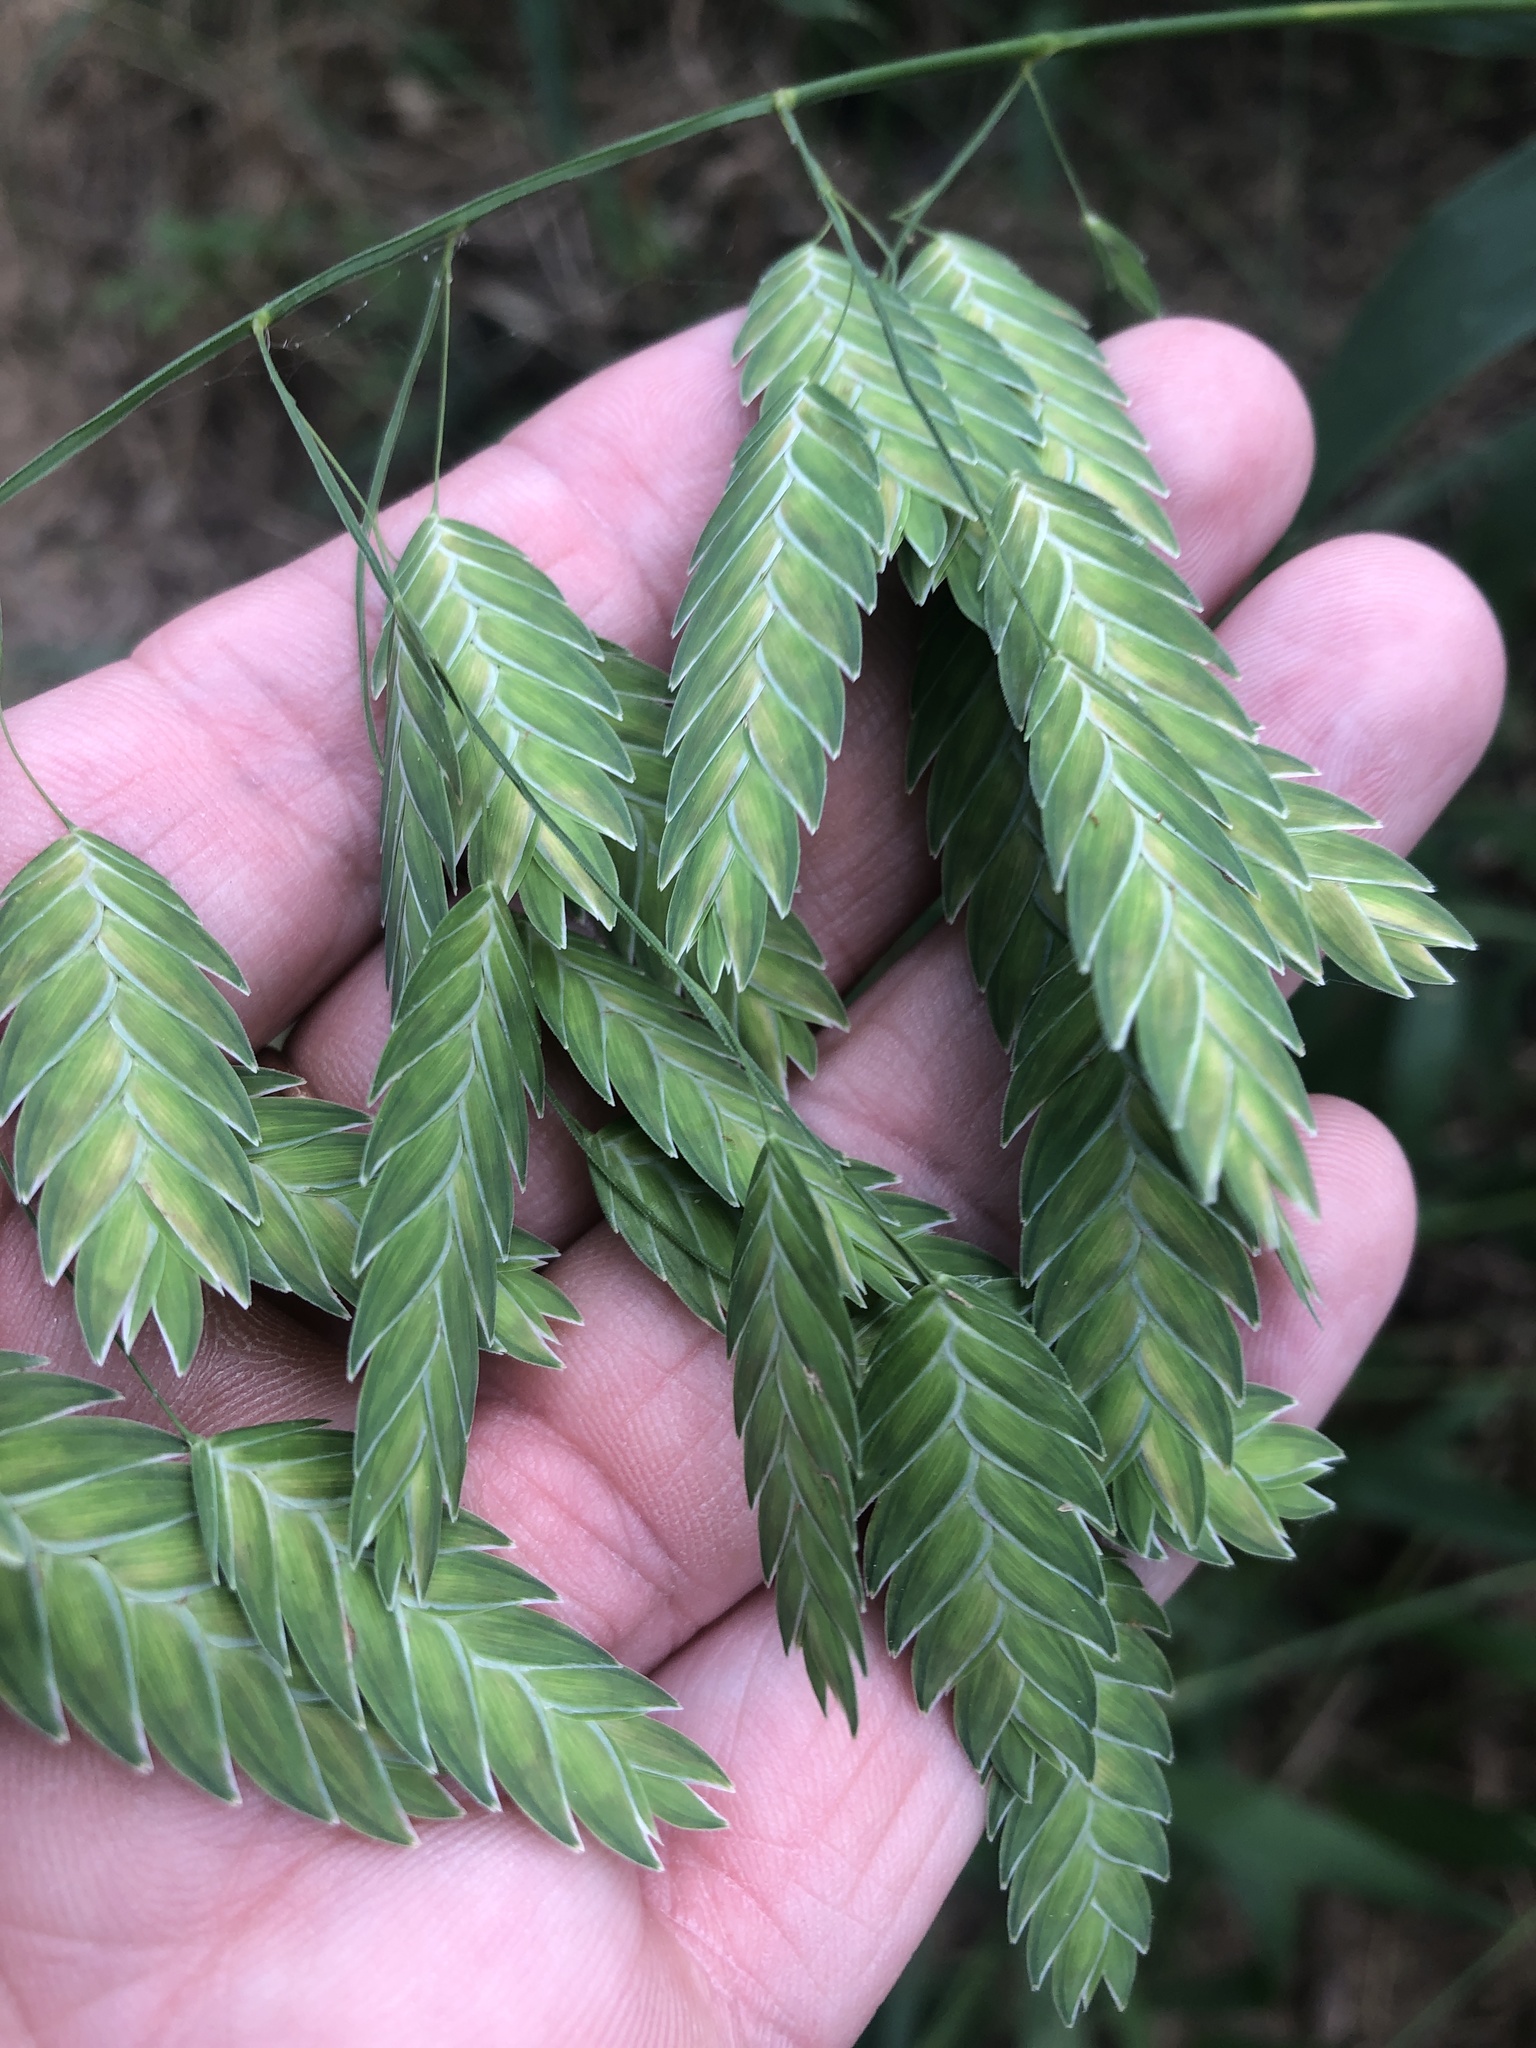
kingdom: Plantae
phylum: Tracheophyta
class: Liliopsida
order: Poales
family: Poaceae
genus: Chasmanthium
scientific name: Chasmanthium latifolium
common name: Broad-leaved chasmanthium
